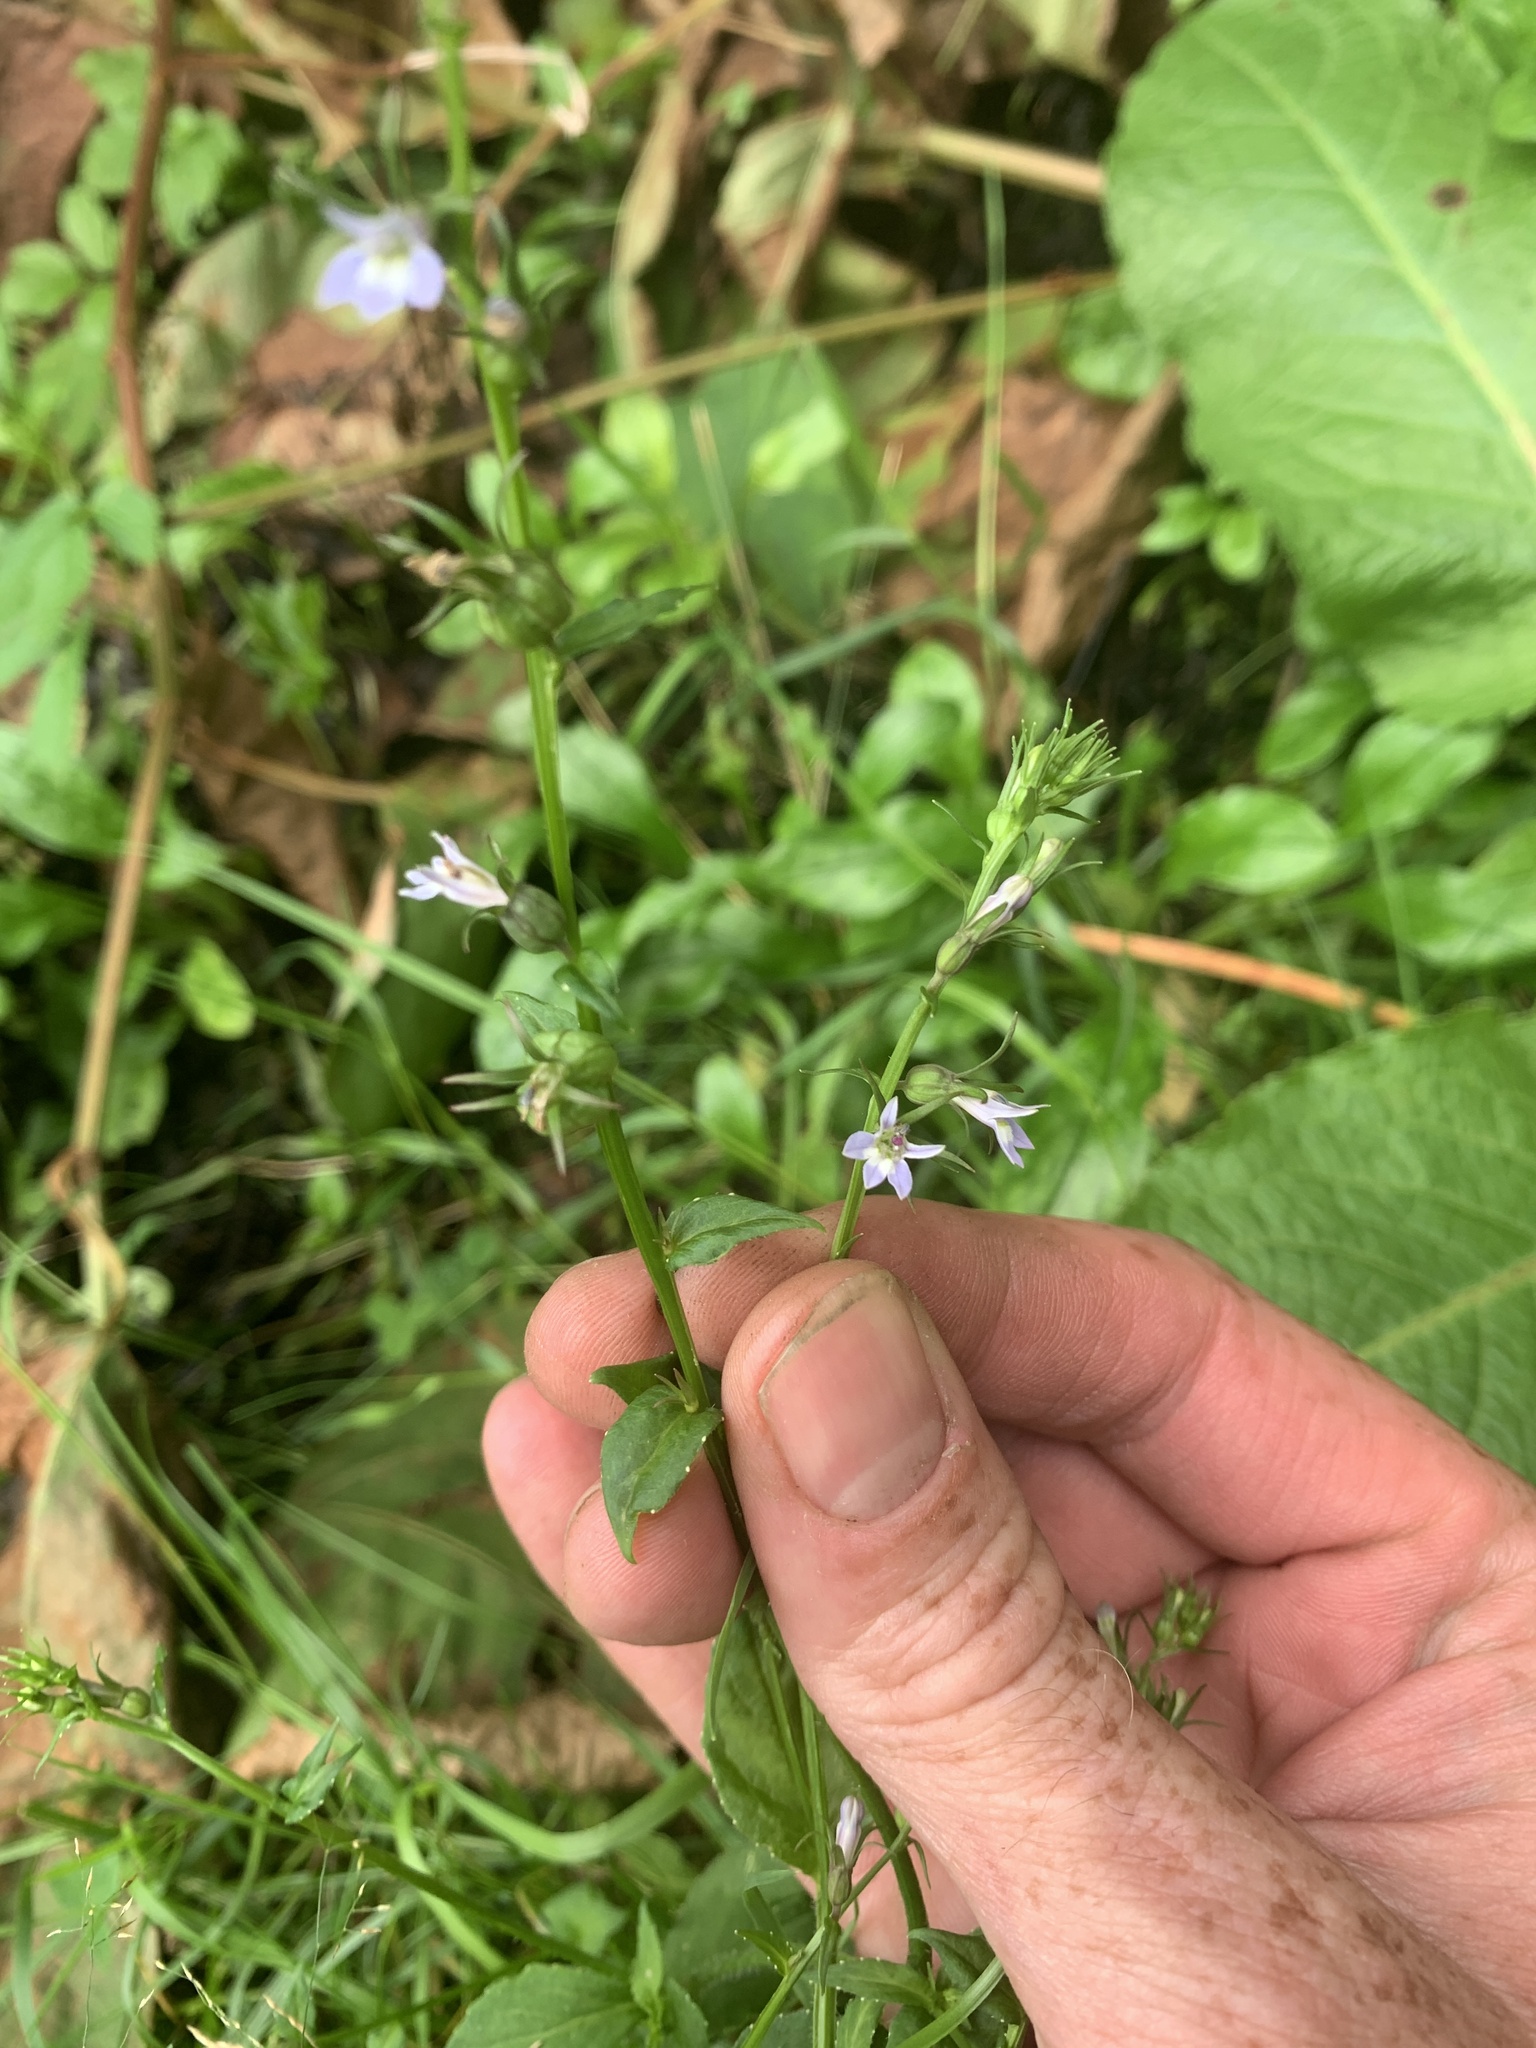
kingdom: Plantae
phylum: Tracheophyta
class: Magnoliopsida
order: Asterales
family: Campanulaceae
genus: Lobelia
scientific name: Lobelia inflata
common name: Indian tobacco
